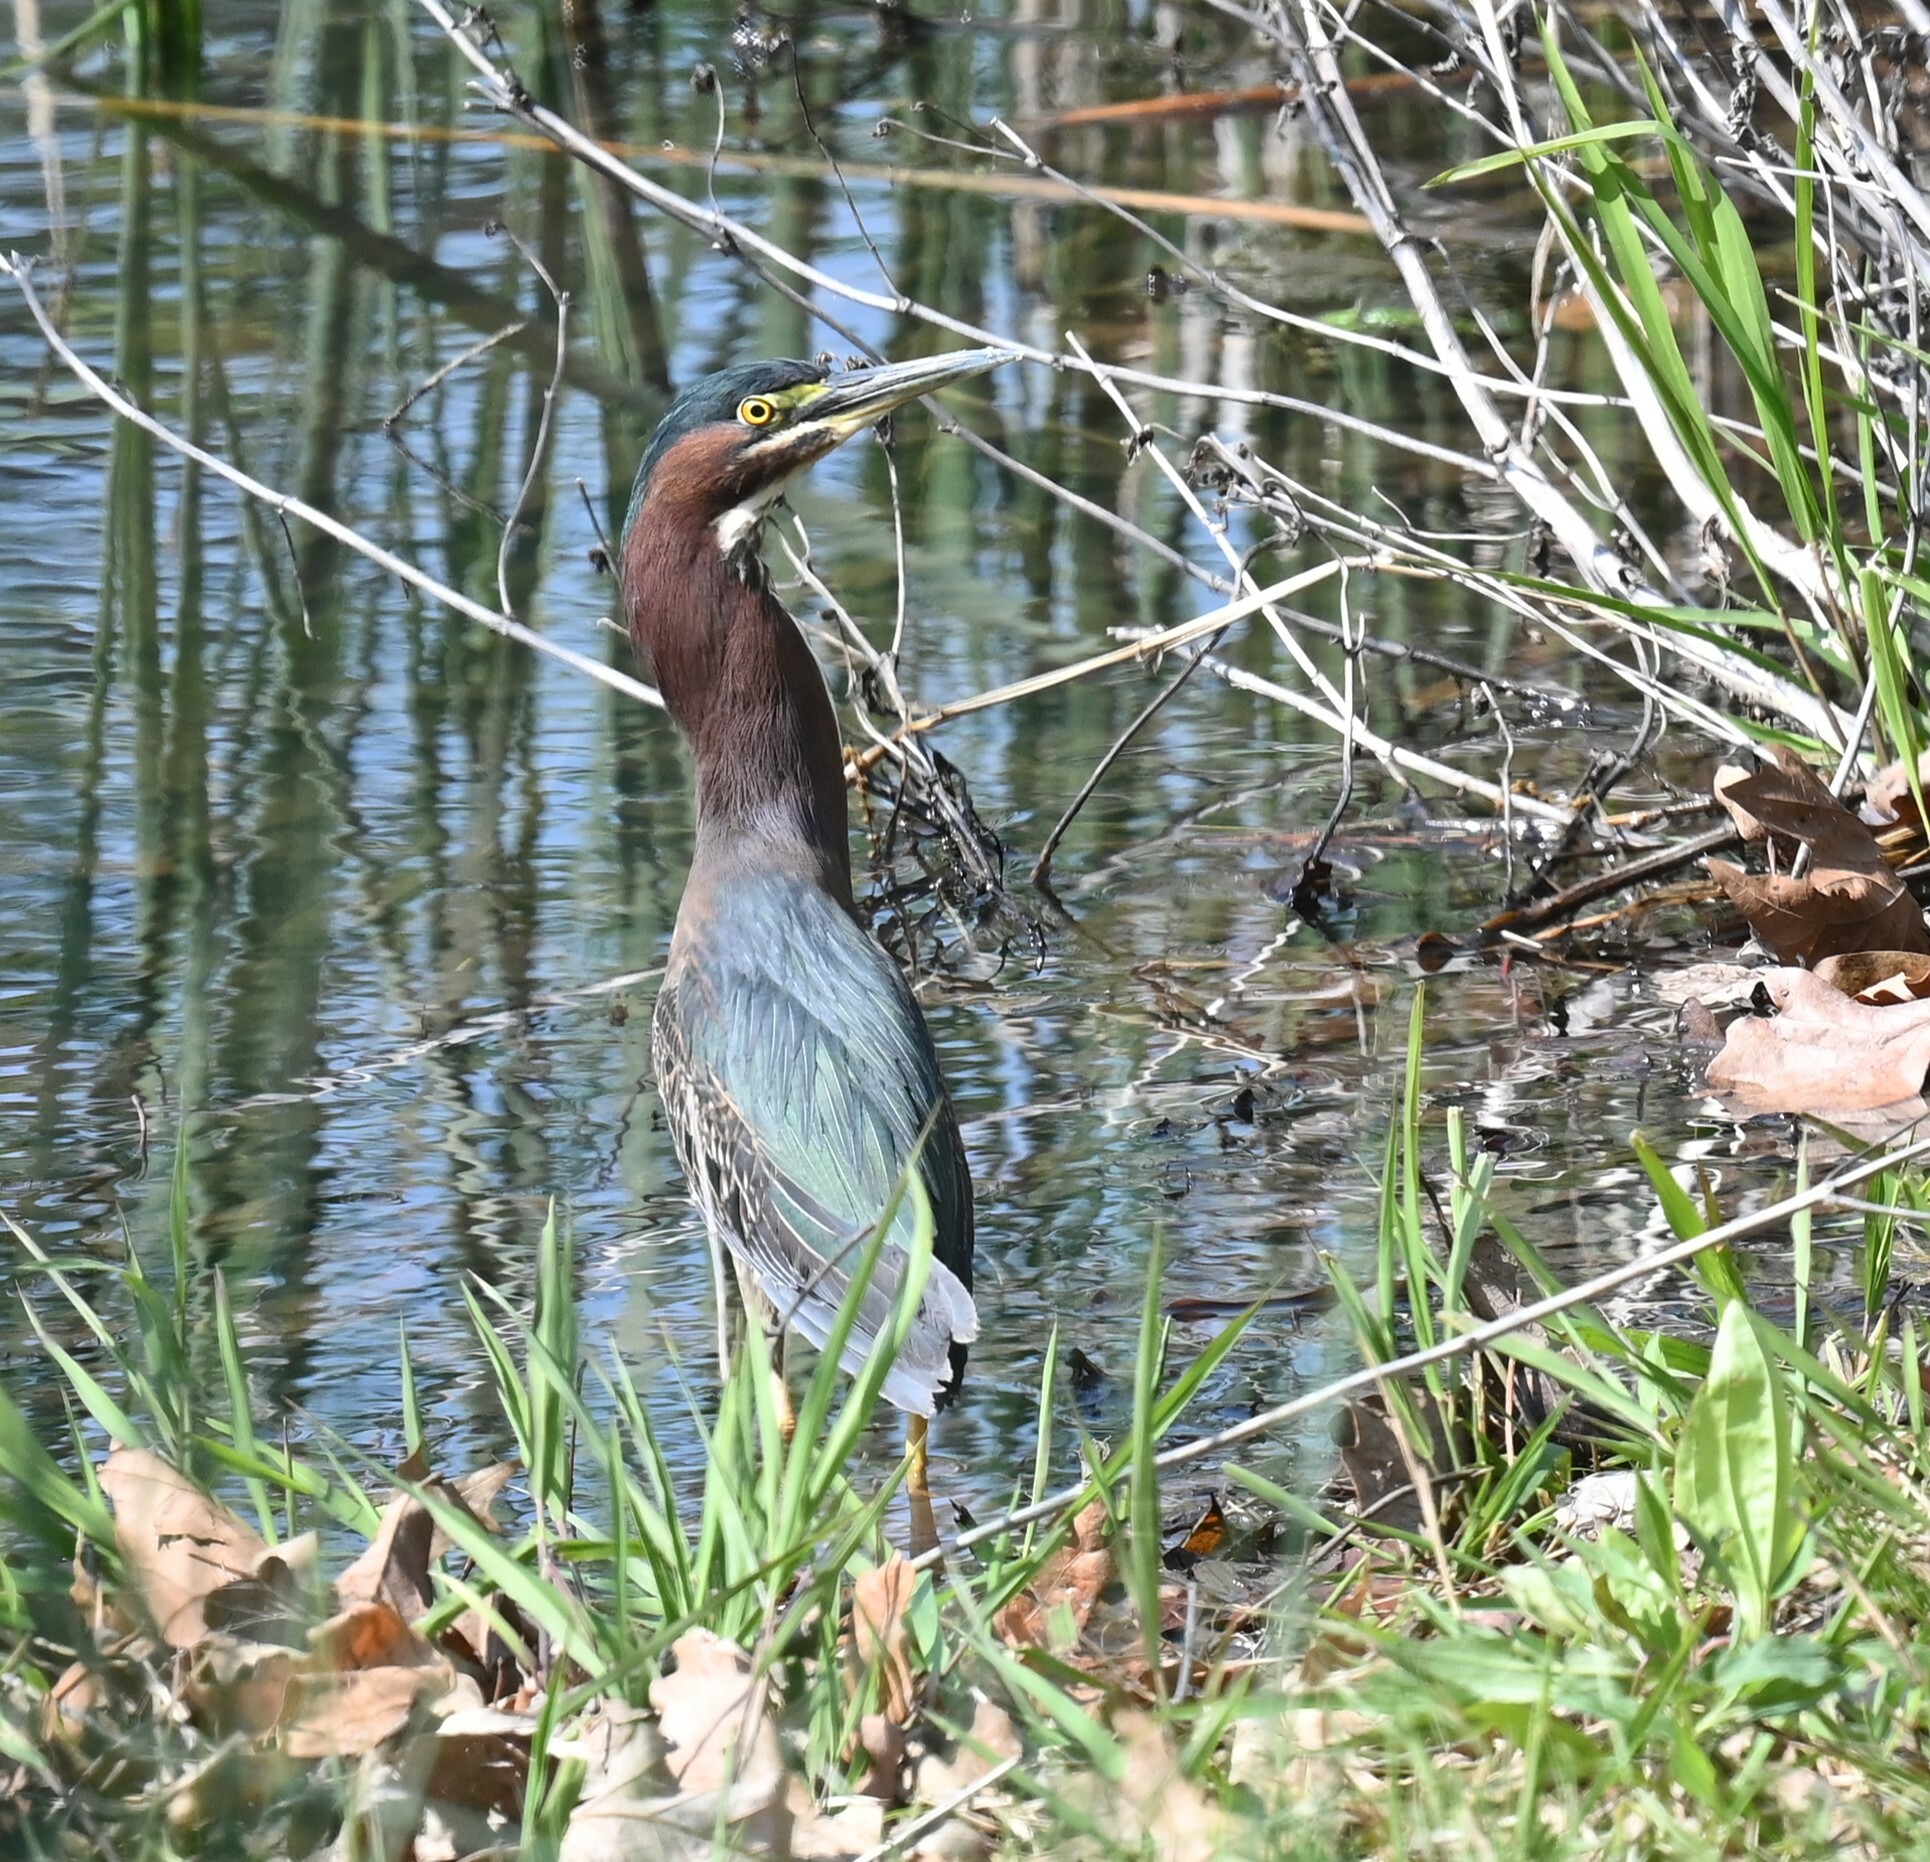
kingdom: Animalia
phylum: Chordata
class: Aves
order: Pelecaniformes
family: Ardeidae
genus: Butorides
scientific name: Butorides virescens
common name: Green heron
